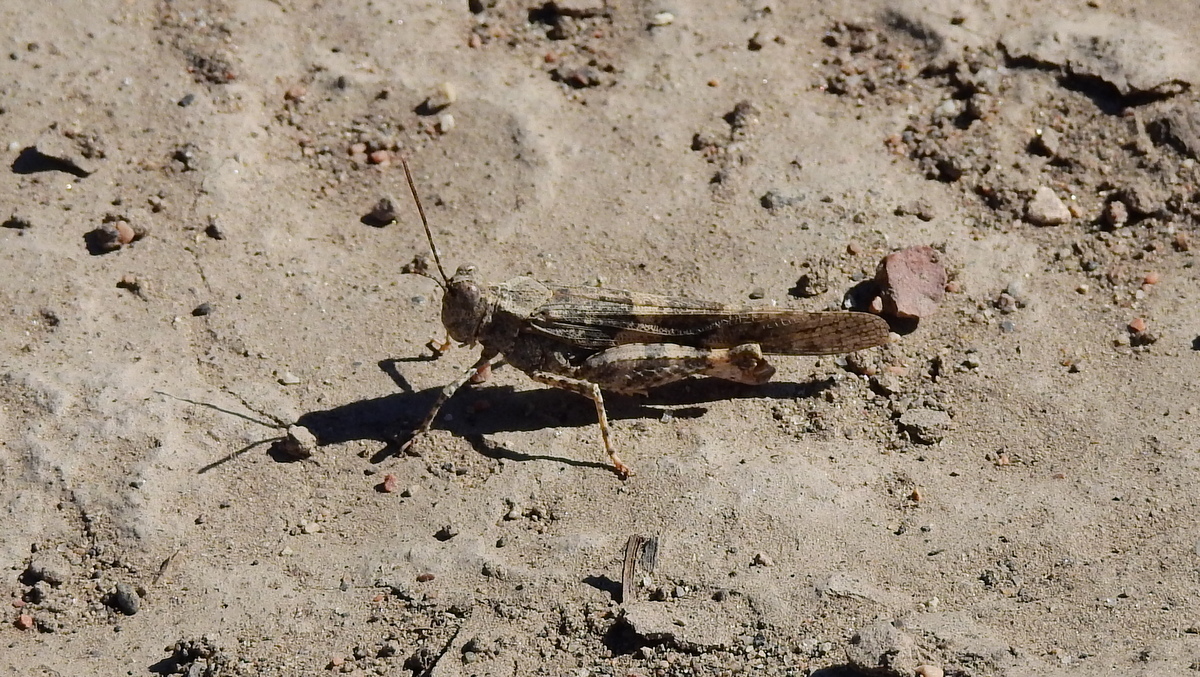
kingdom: Animalia
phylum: Arthropoda
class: Insecta
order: Orthoptera
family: Acrididae
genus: Trimerotropis
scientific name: Trimerotropis pallidipennis
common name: Pallid-winged grasshopper
